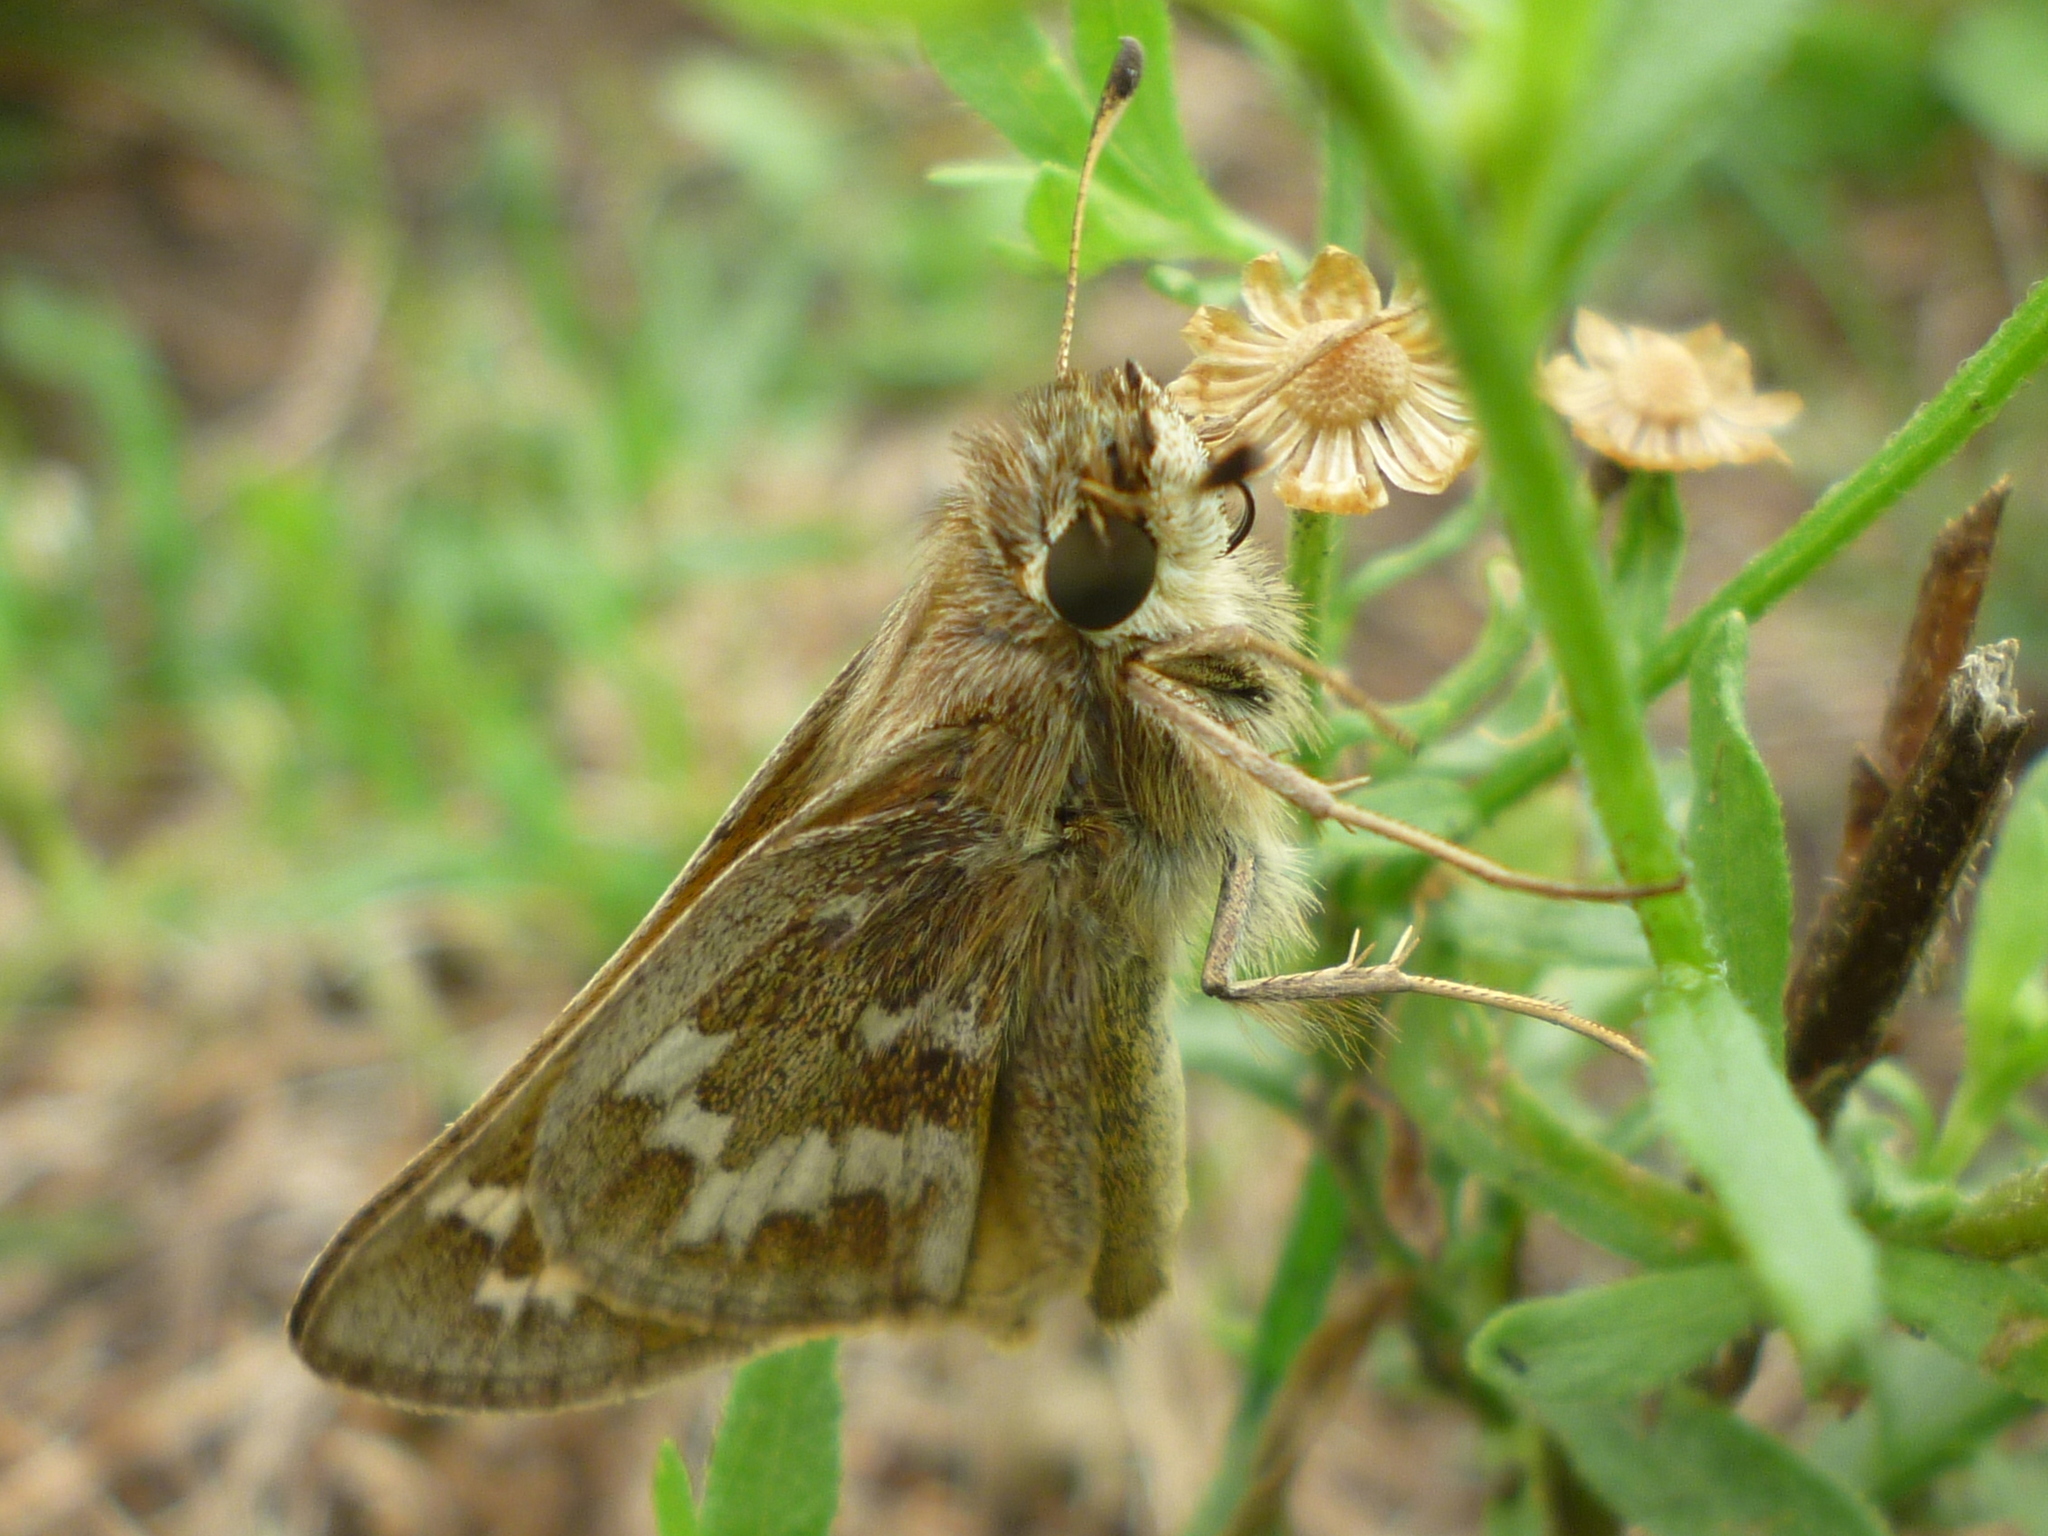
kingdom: Animalia
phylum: Arthropoda
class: Insecta
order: Lepidoptera
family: Hesperiidae
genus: Atalopedes
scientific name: Atalopedes
